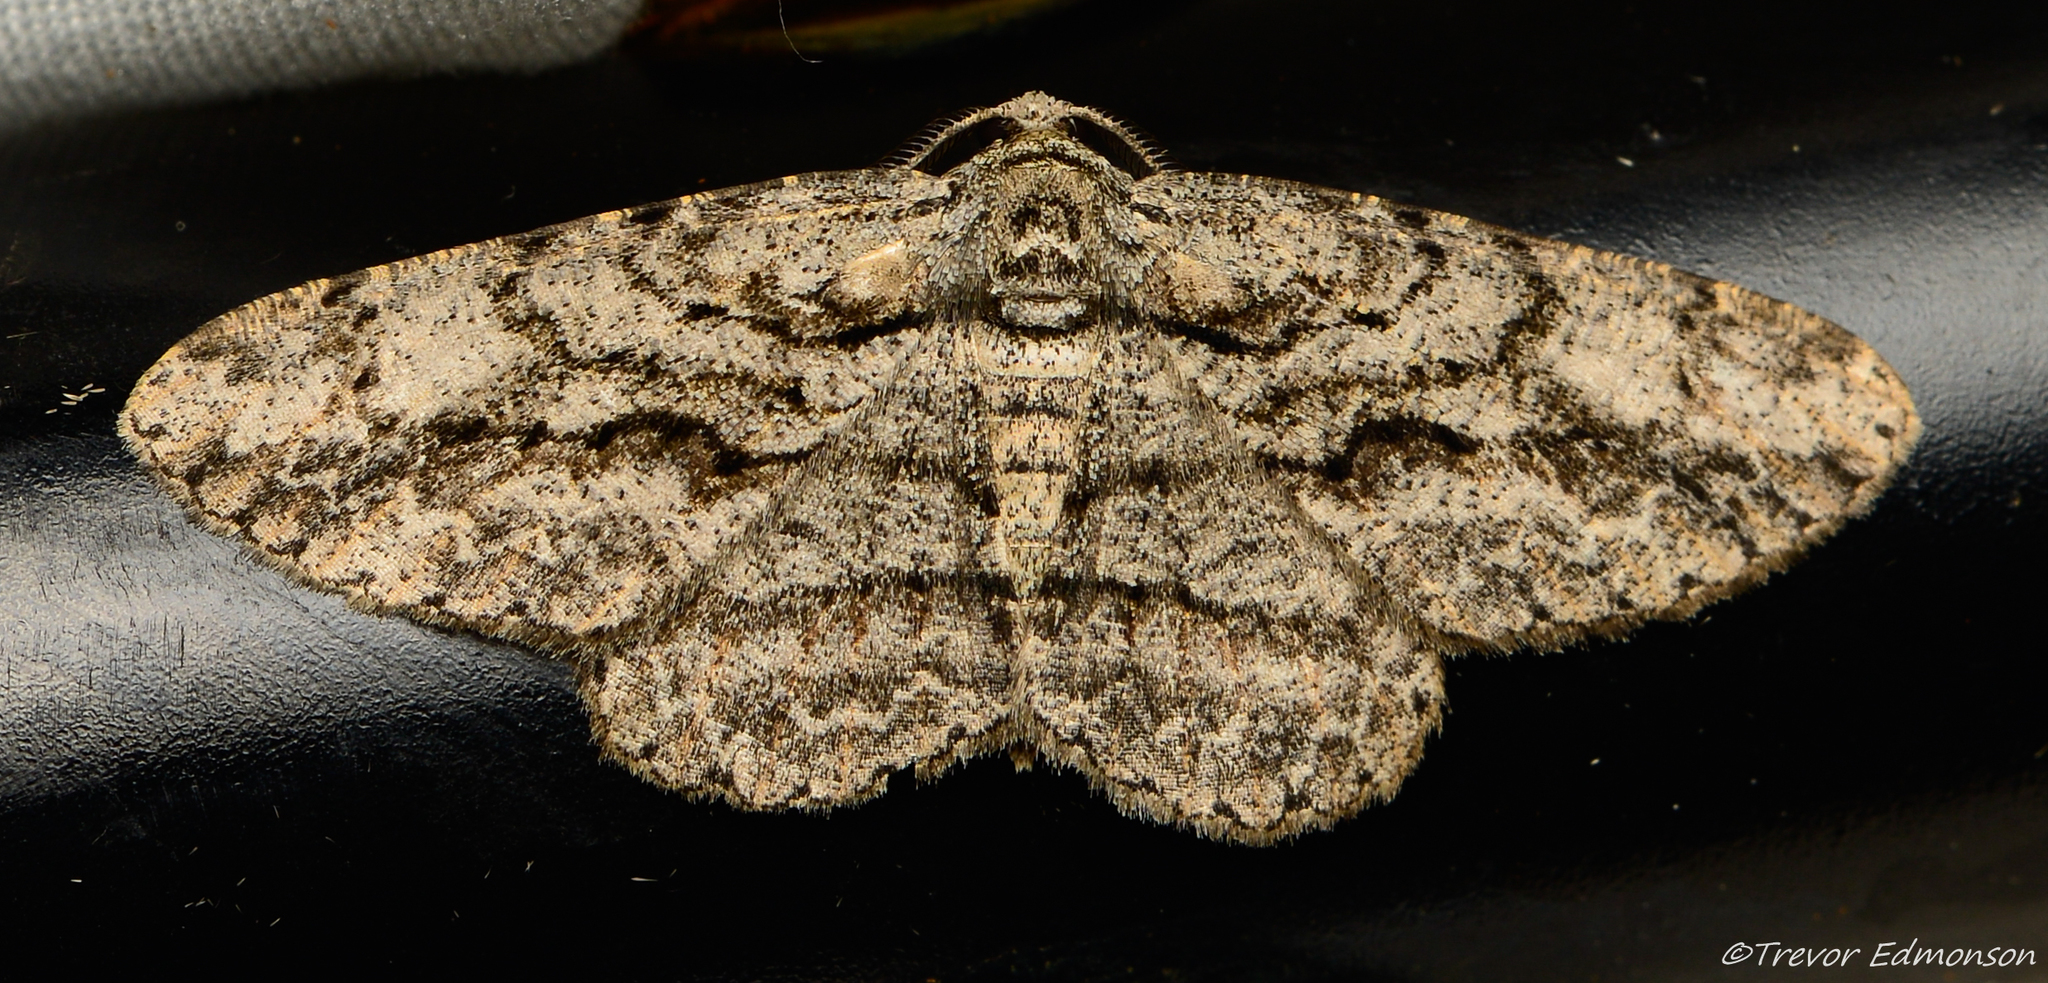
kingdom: Animalia
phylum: Arthropoda
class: Insecta
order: Lepidoptera
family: Geometridae
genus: Anavitrinella
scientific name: Anavitrinella pampinaria
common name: Common gray
